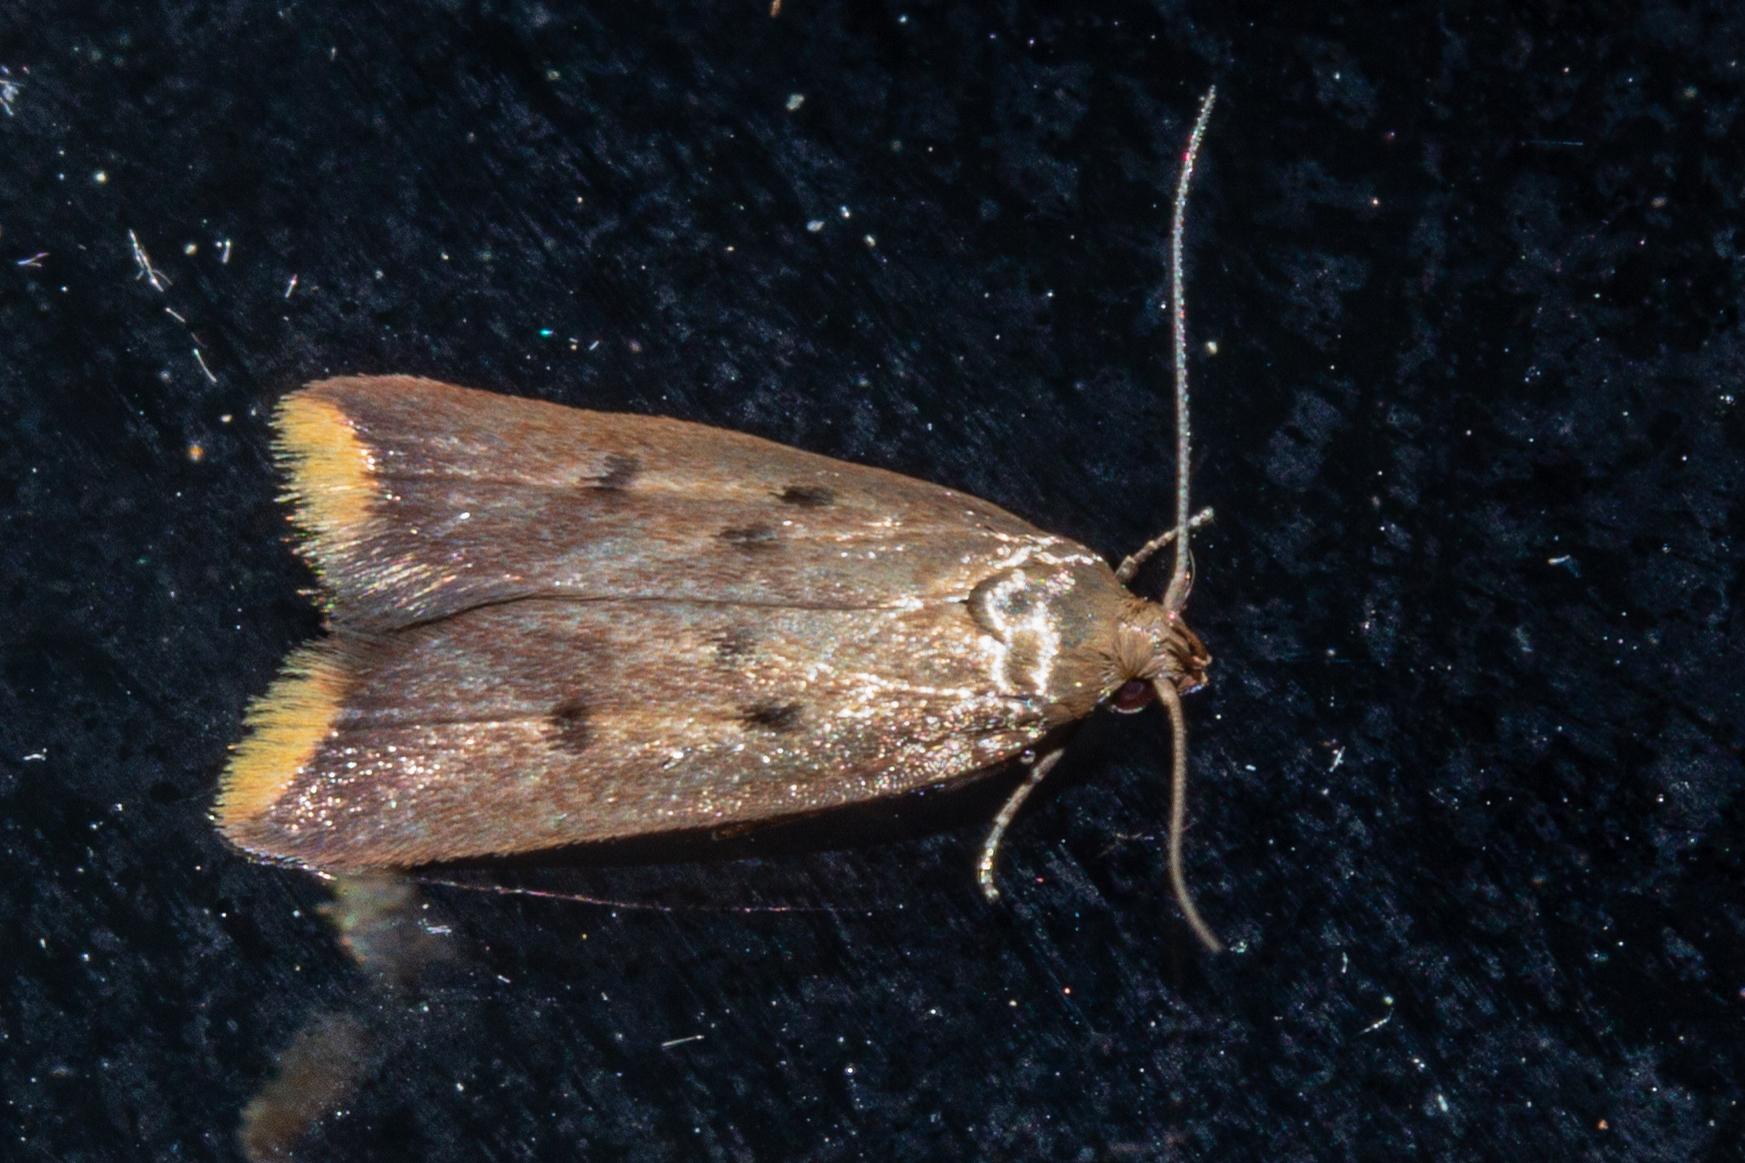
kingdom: Animalia
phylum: Arthropoda
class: Insecta
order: Lepidoptera
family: Oecophoridae
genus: Tachystola
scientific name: Tachystola acroxantha
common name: Ruddy streak
